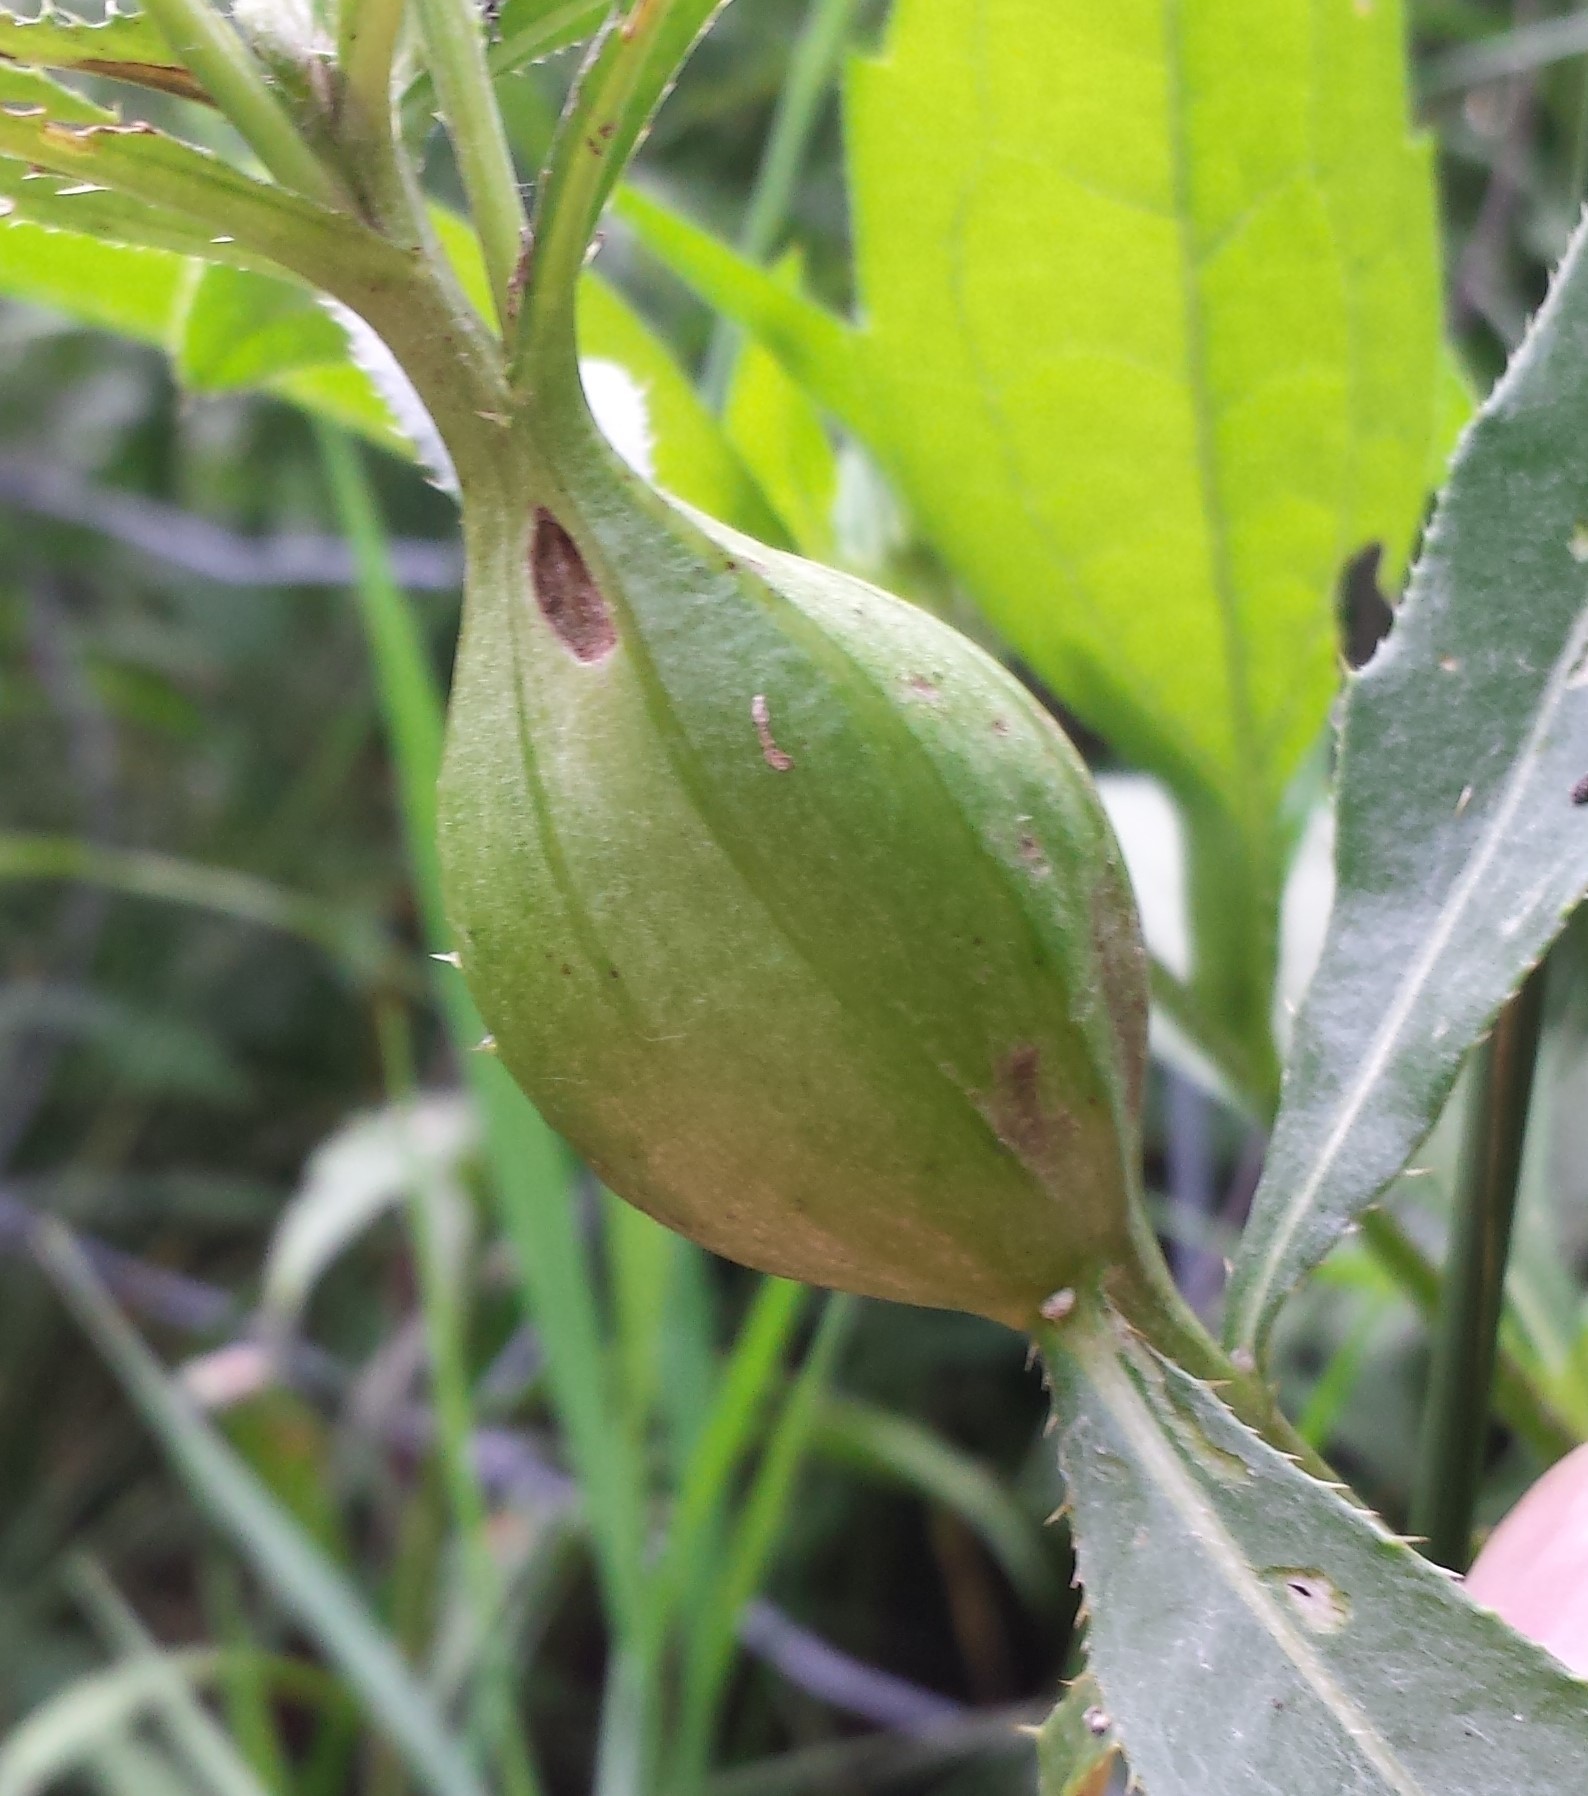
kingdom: Animalia
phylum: Arthropoda
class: Insecta
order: Diptera
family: Tephritidae
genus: Urophora
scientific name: Urophora cardui
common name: Fruit fly
